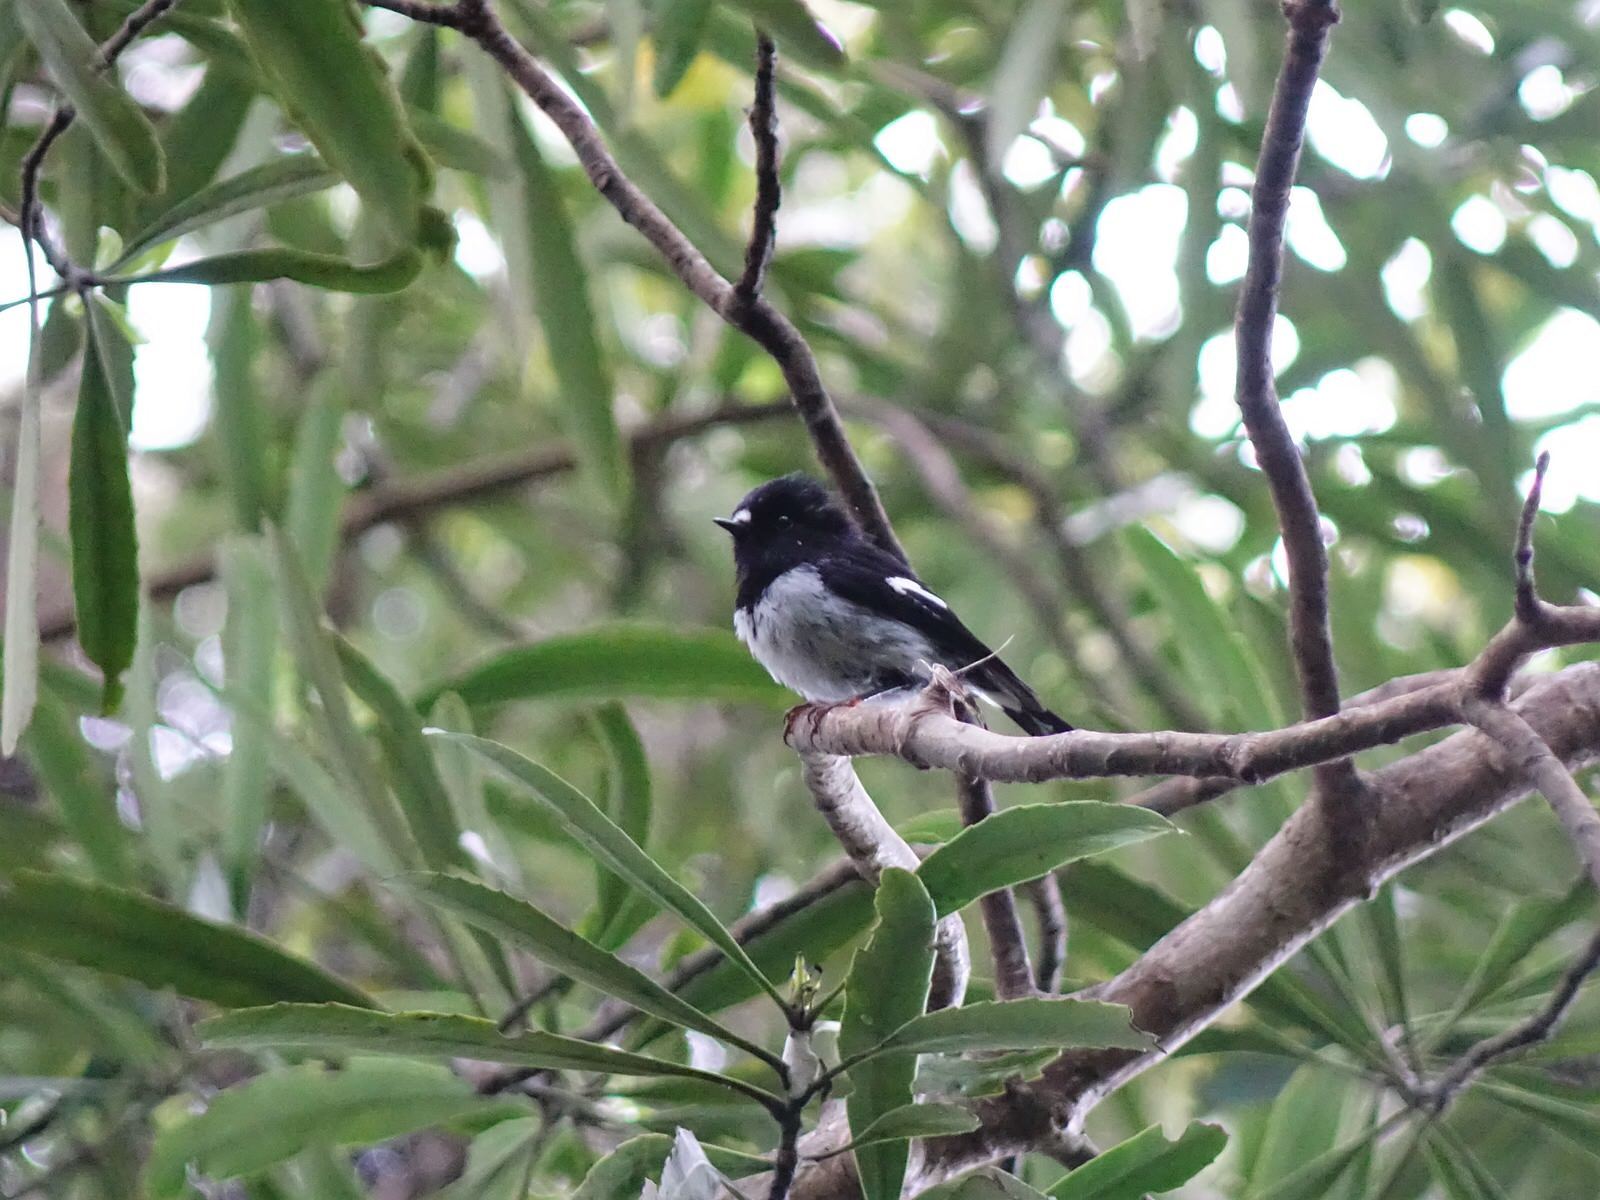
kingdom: Animalia
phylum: Chordata
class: Aves
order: Passeriformes
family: Petroicidae
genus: Petroica
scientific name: Petroica macrocephala
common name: Tomtit
